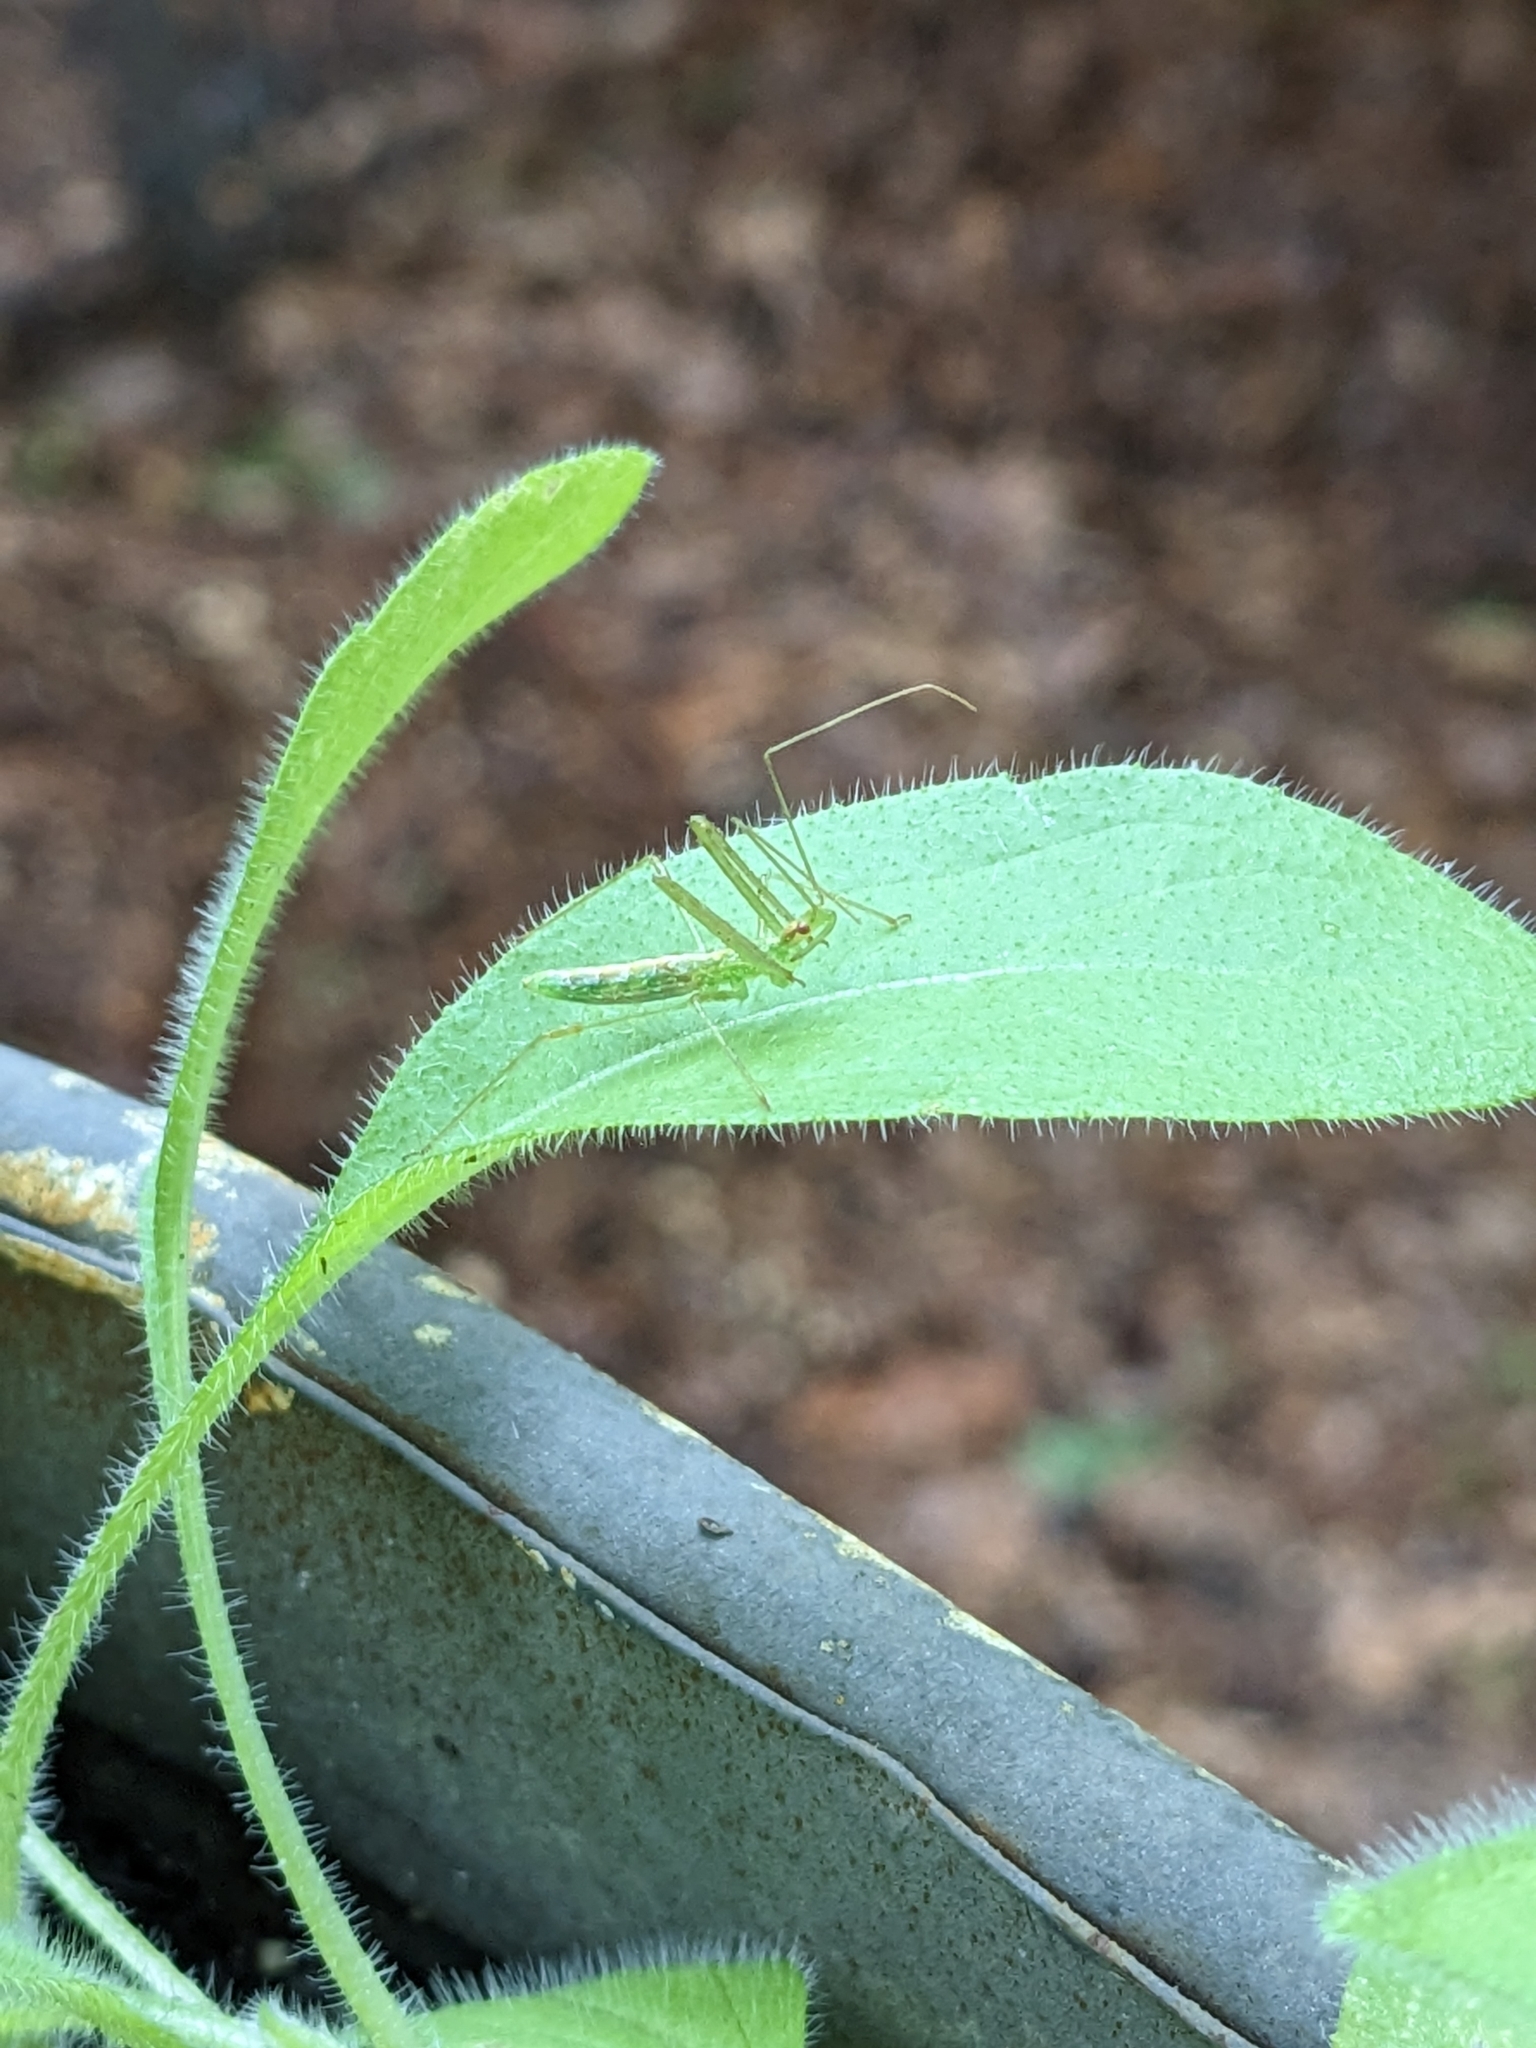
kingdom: Animalia
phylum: Arthropoda
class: Insecta
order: Hemiptera
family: Reduviidae
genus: Zelus
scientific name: Zelus luridus
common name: Pale green assassin bug
